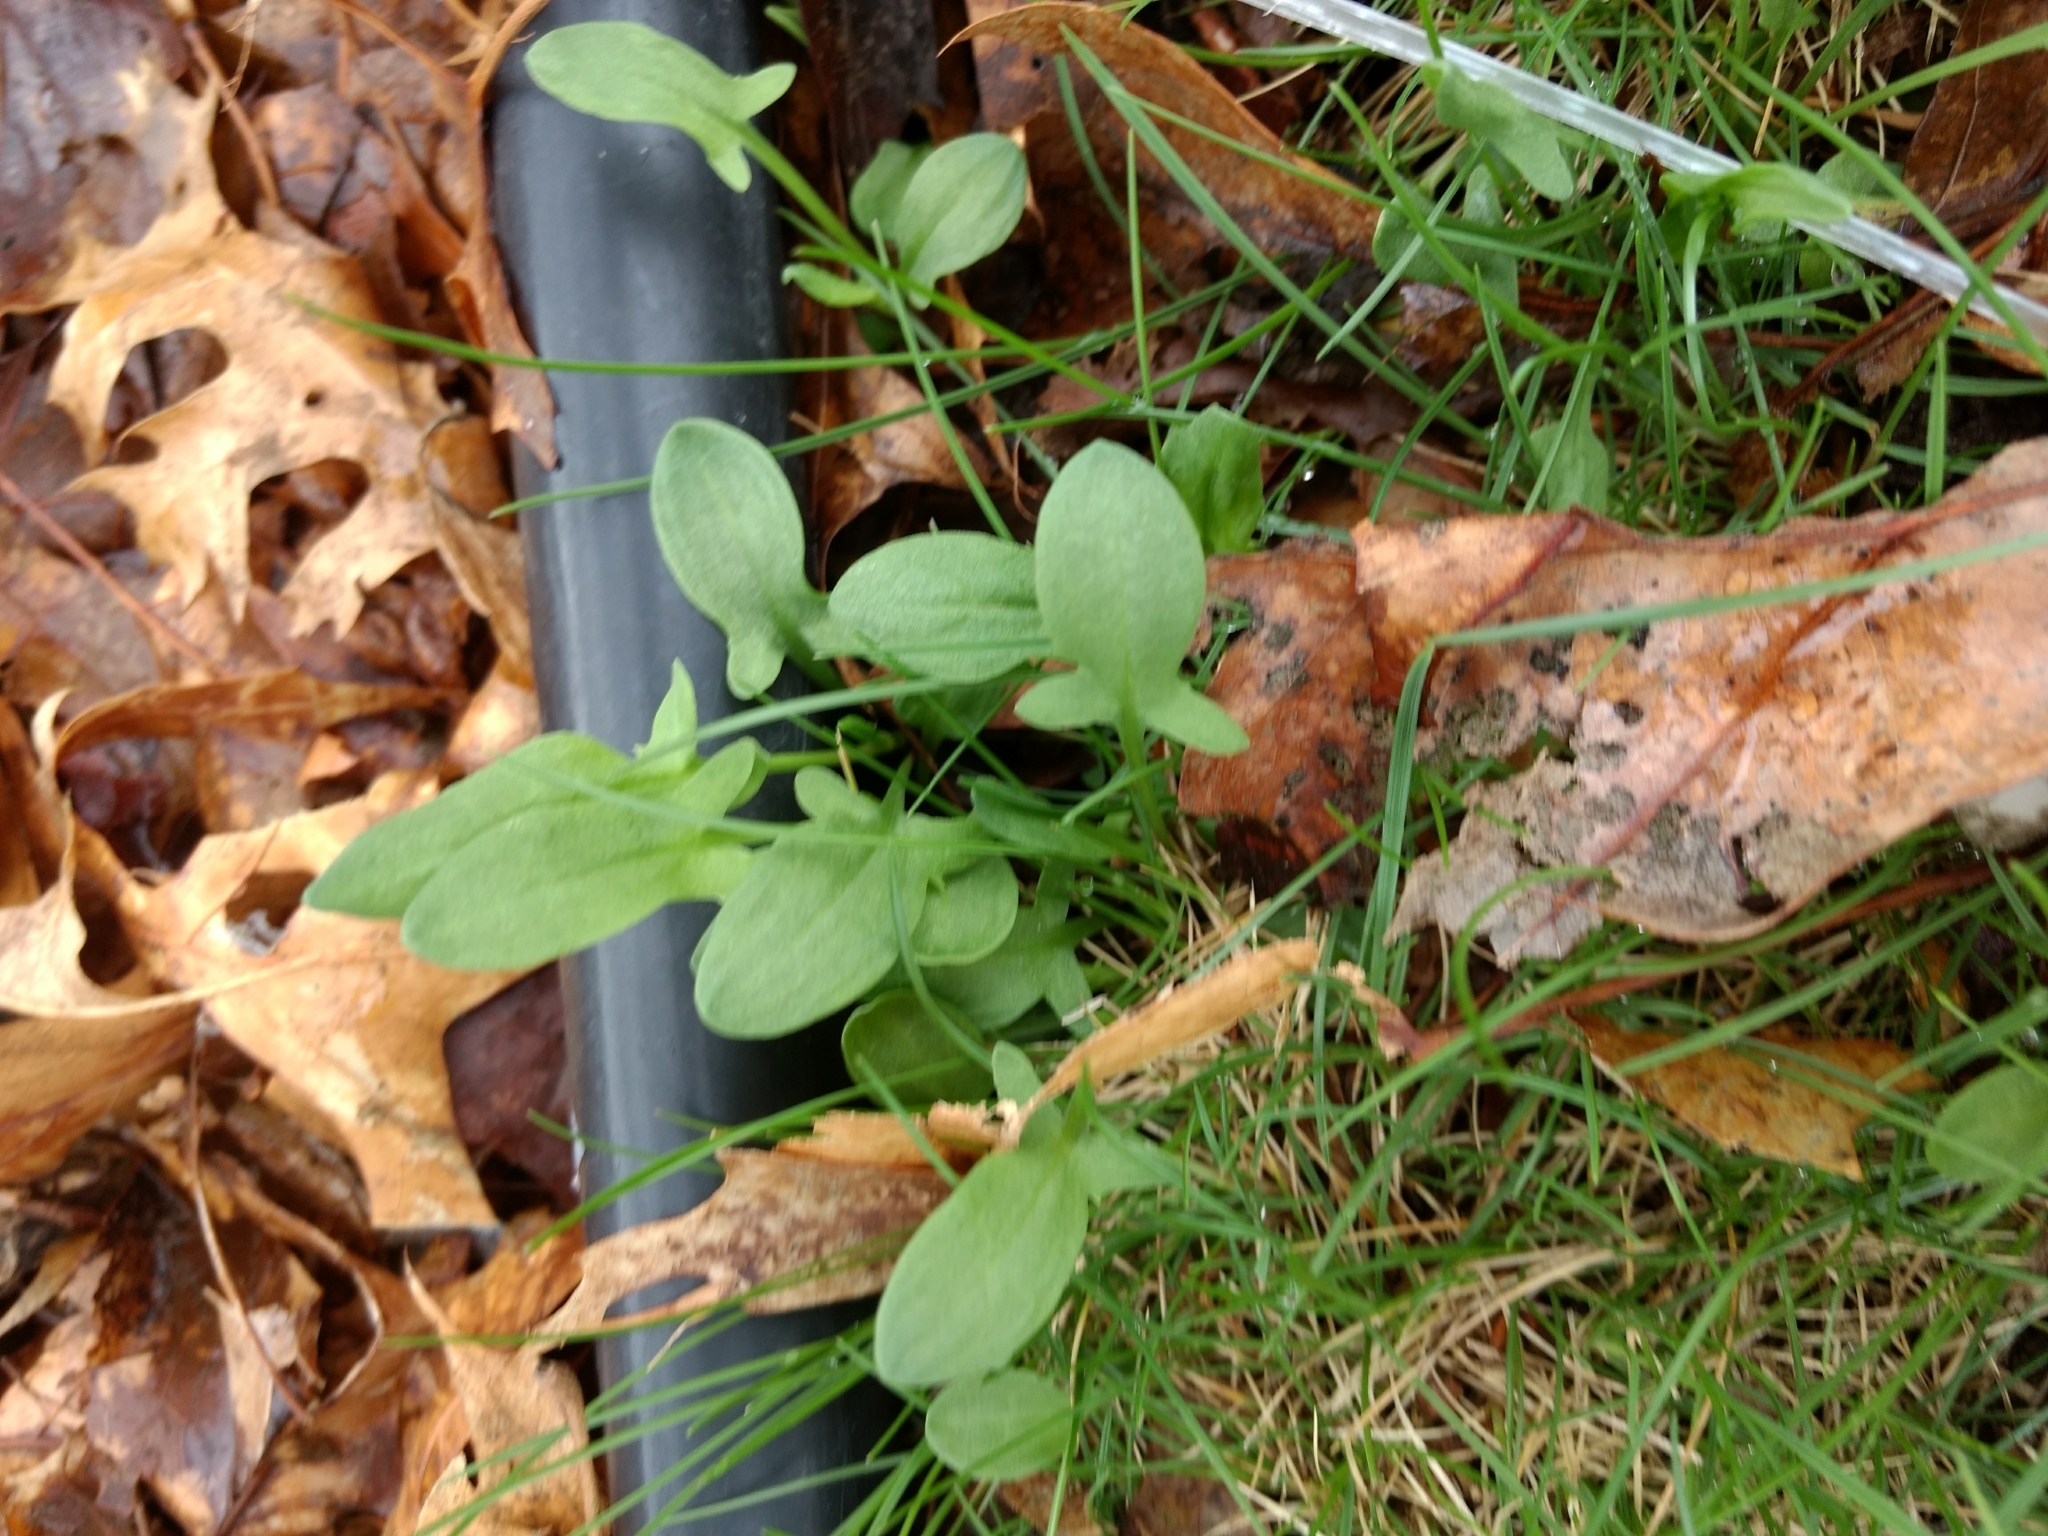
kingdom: Plantae
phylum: Tracheophyta
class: Magnoliopsida
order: Caryophyllales
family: Polygonaceae
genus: Rumex
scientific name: Rumex acetosella
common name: Common sheep sorrel
